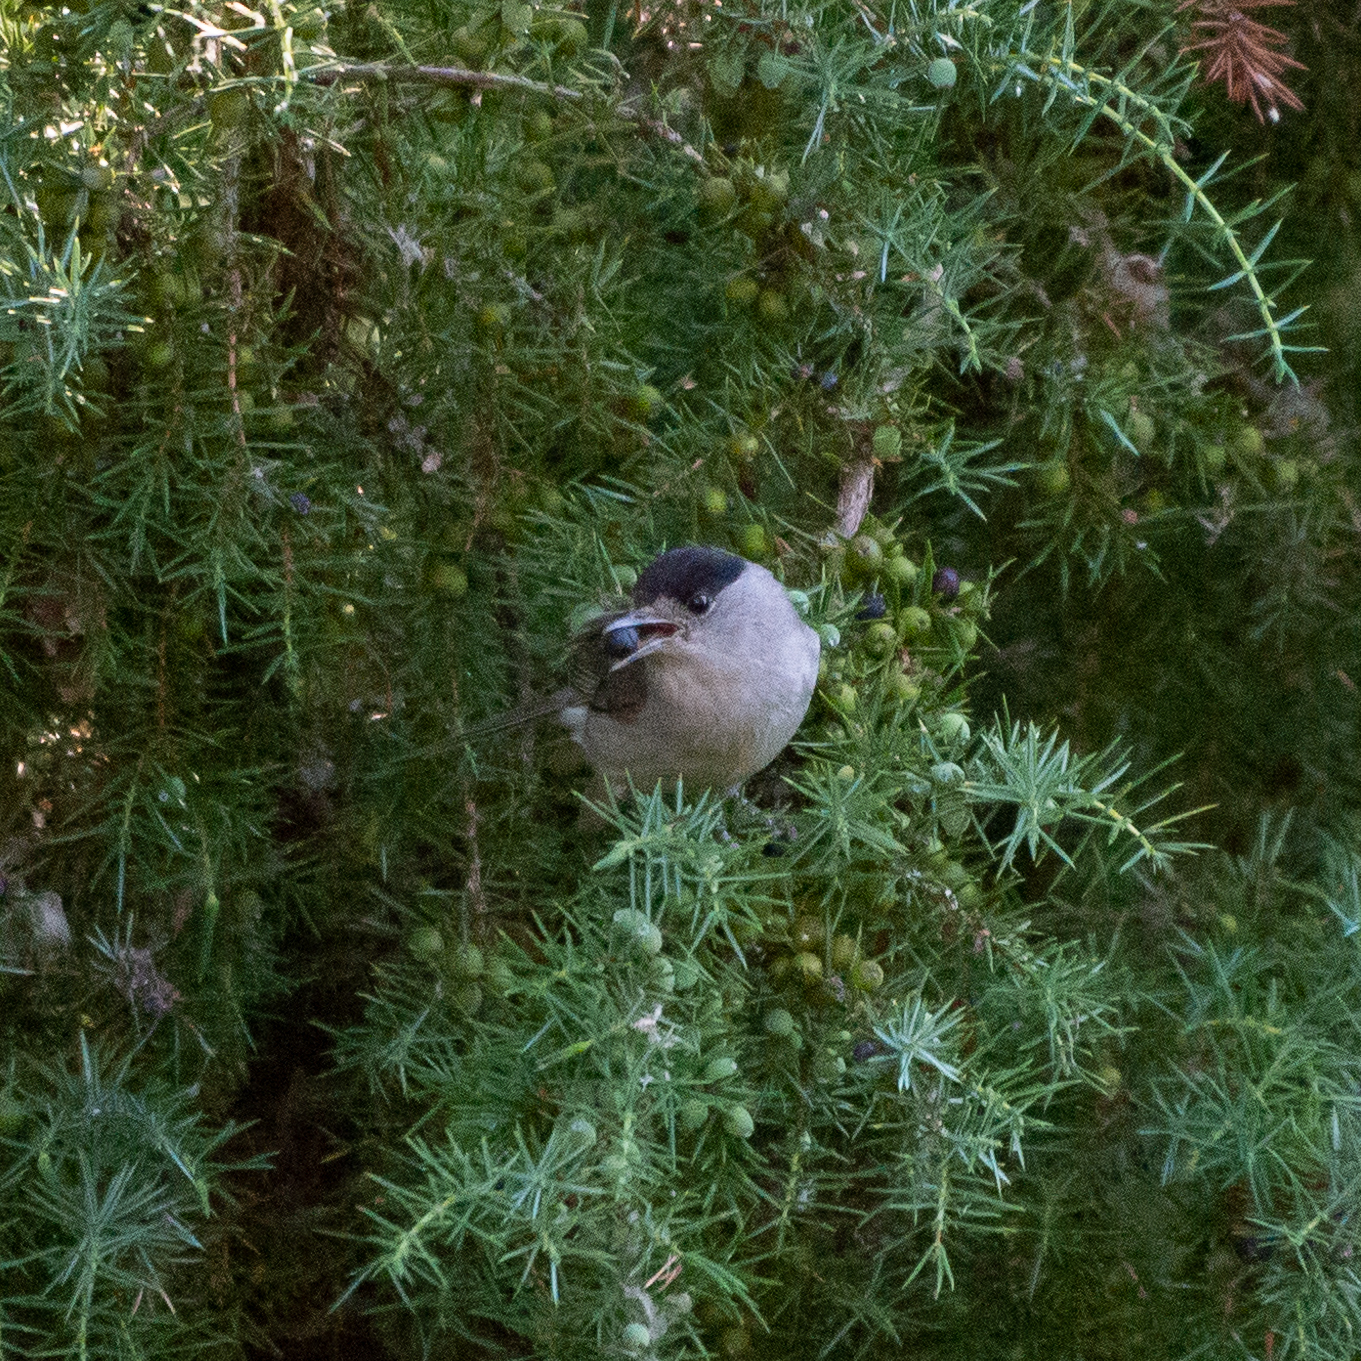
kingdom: Animalia
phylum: Chordata
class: Aves
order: Passeriformes
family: Sylviidae
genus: Sylvia
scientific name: Sylvia atricapilla
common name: Eurasian blackcap
